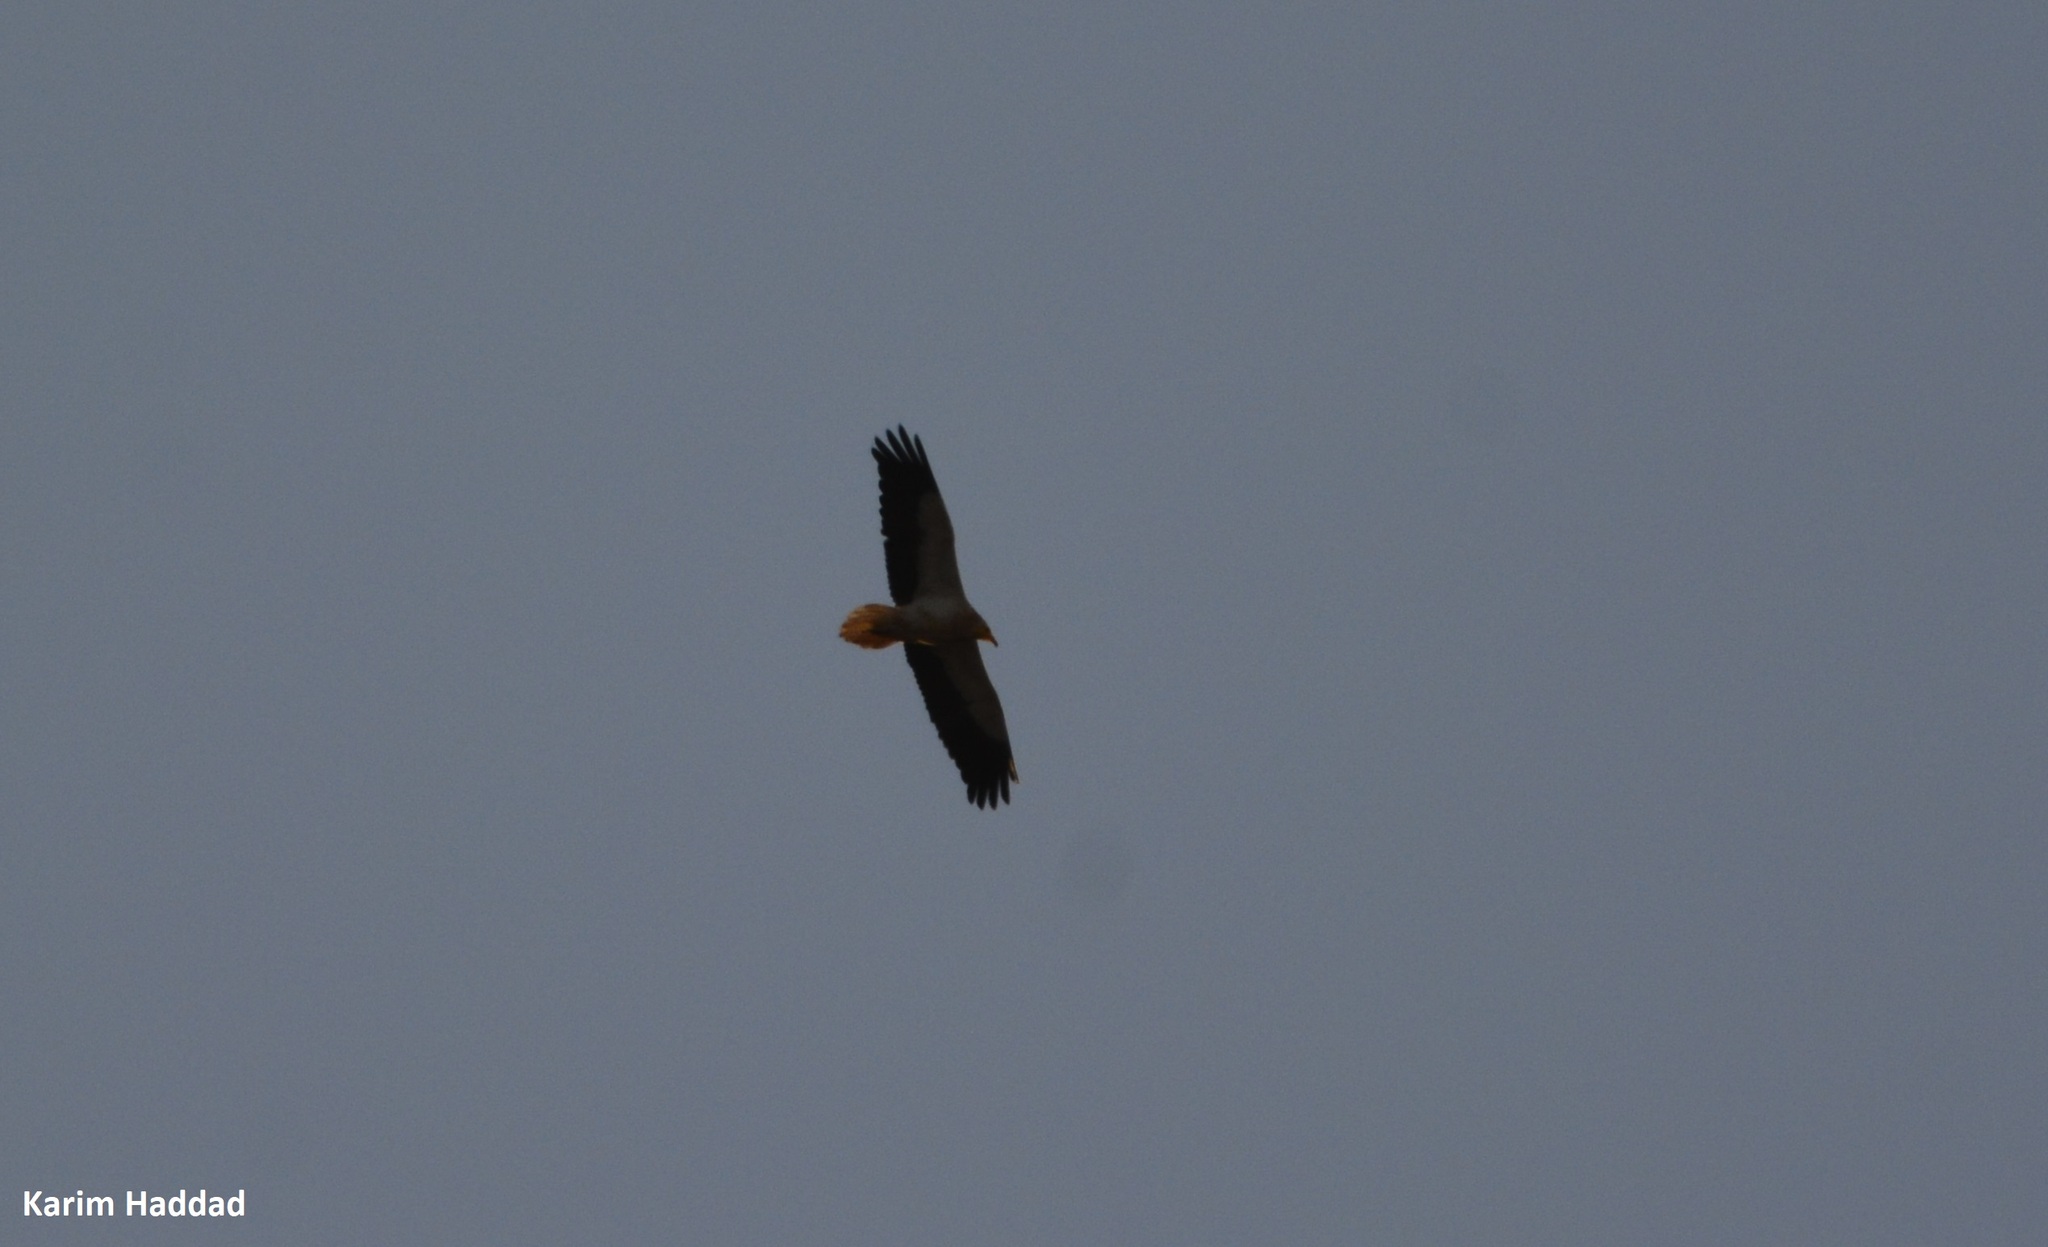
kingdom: Animalia
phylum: Chordata
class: Aves
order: Accipitriformes
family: Accipitridae
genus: Neophron
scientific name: Neophron percnopterus
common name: Egyptian vulture
